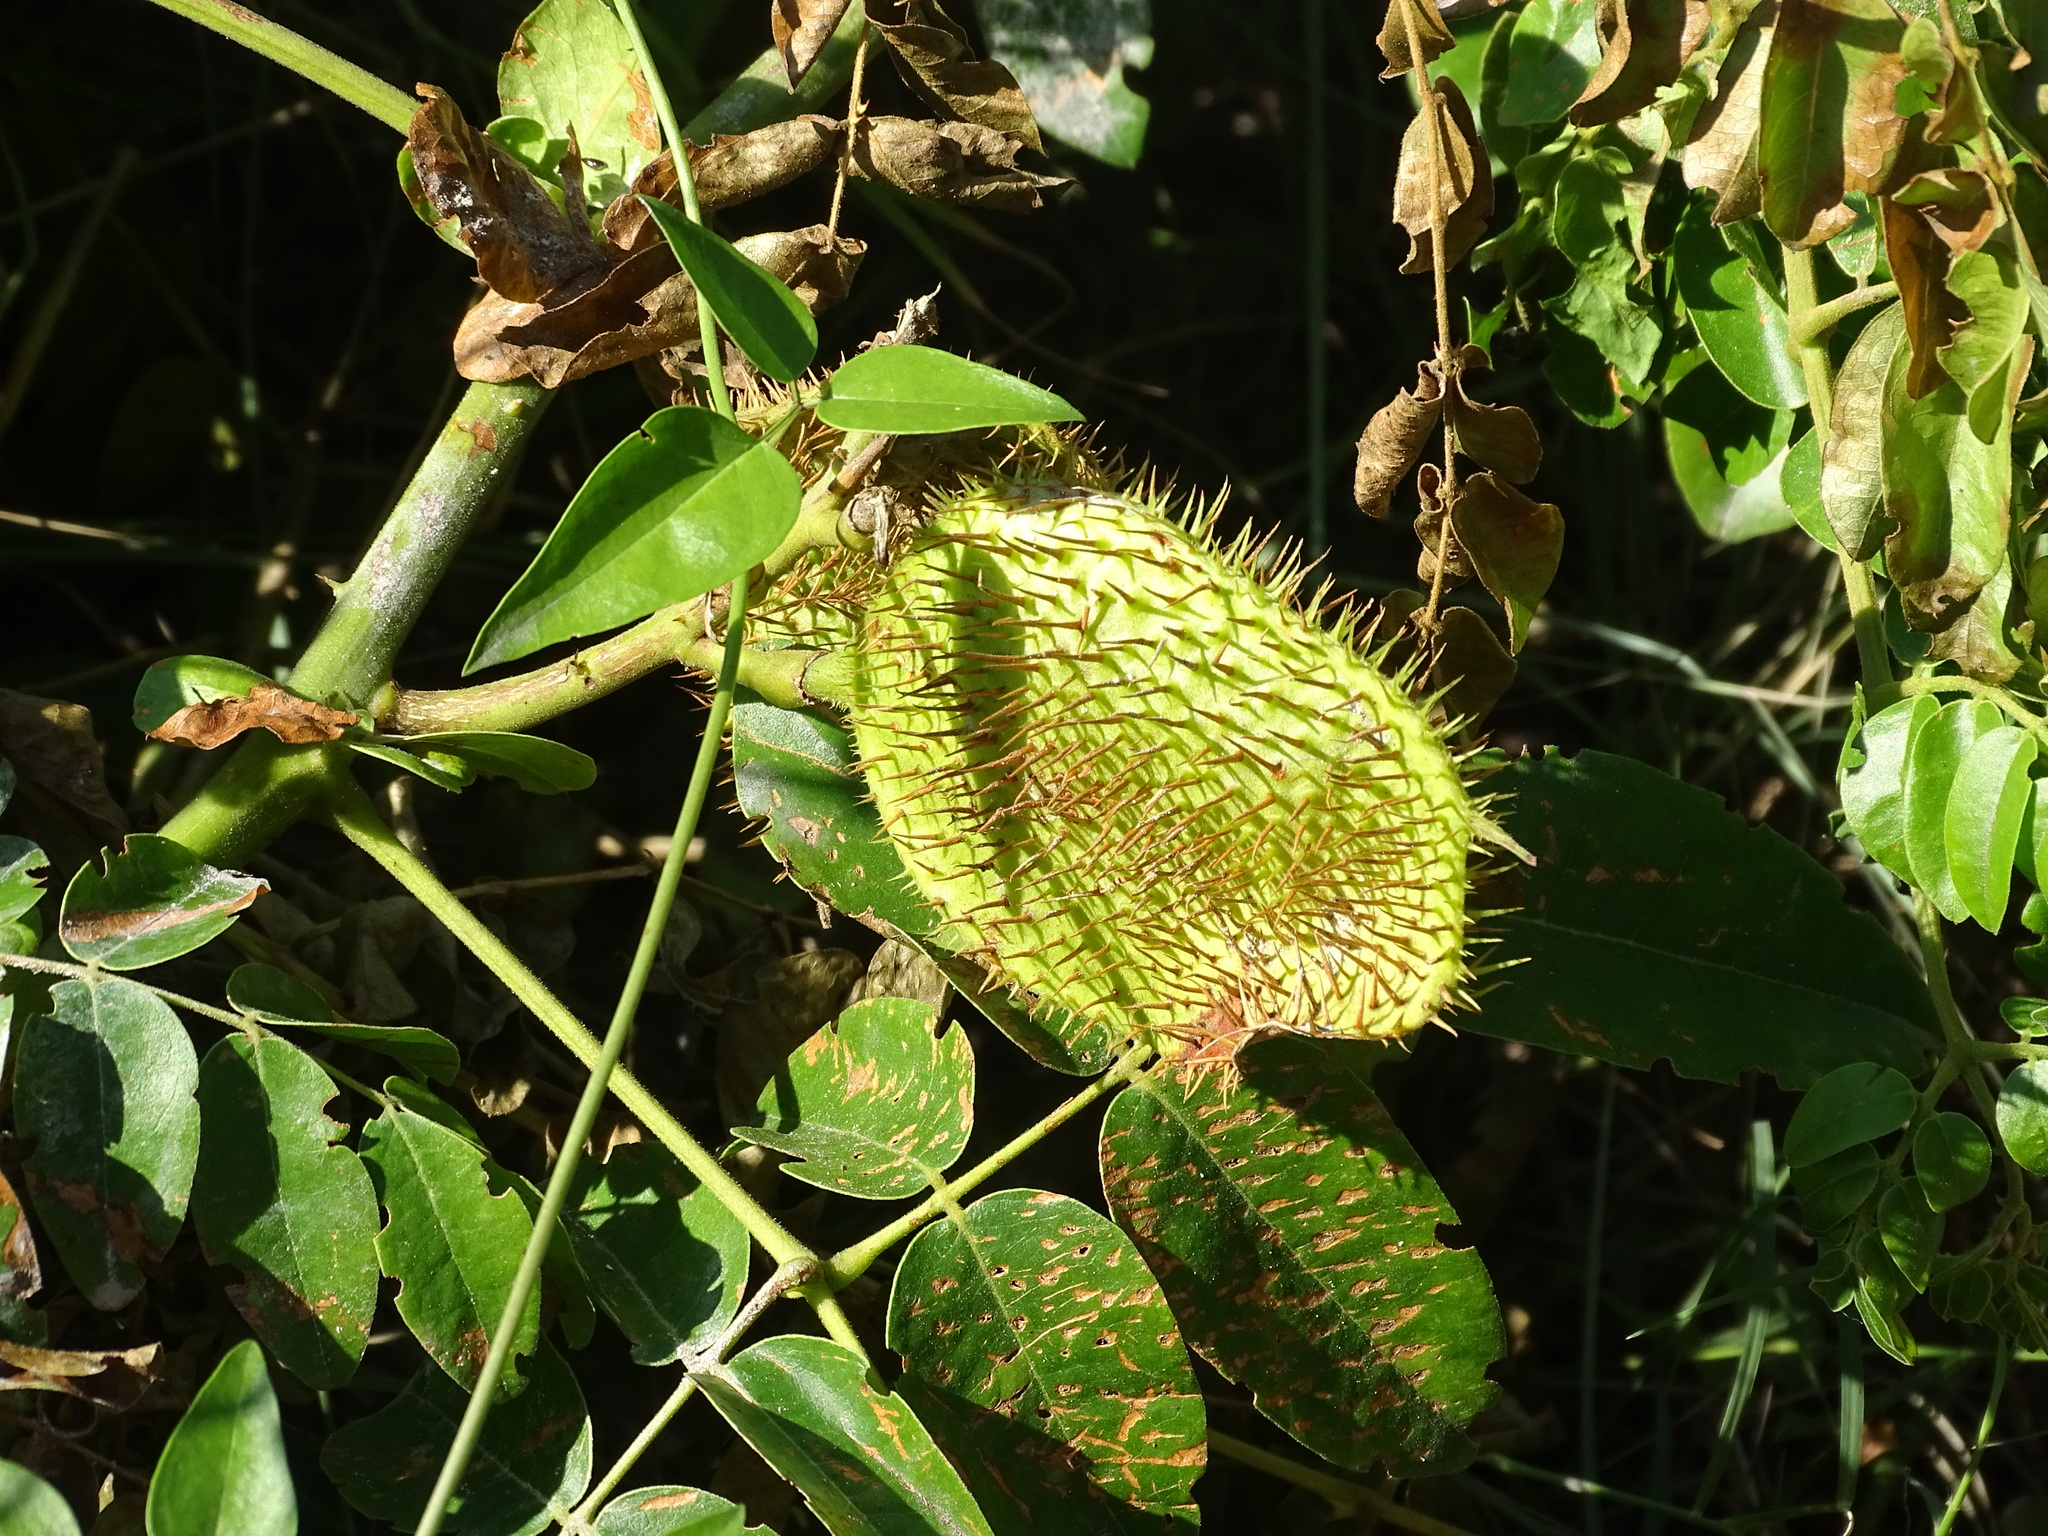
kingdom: Plantae
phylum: Tracheophyta
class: Magnoliopsida
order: Fabales
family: Fabaceae
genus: Guilandina
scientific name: Guilandina bonduc
